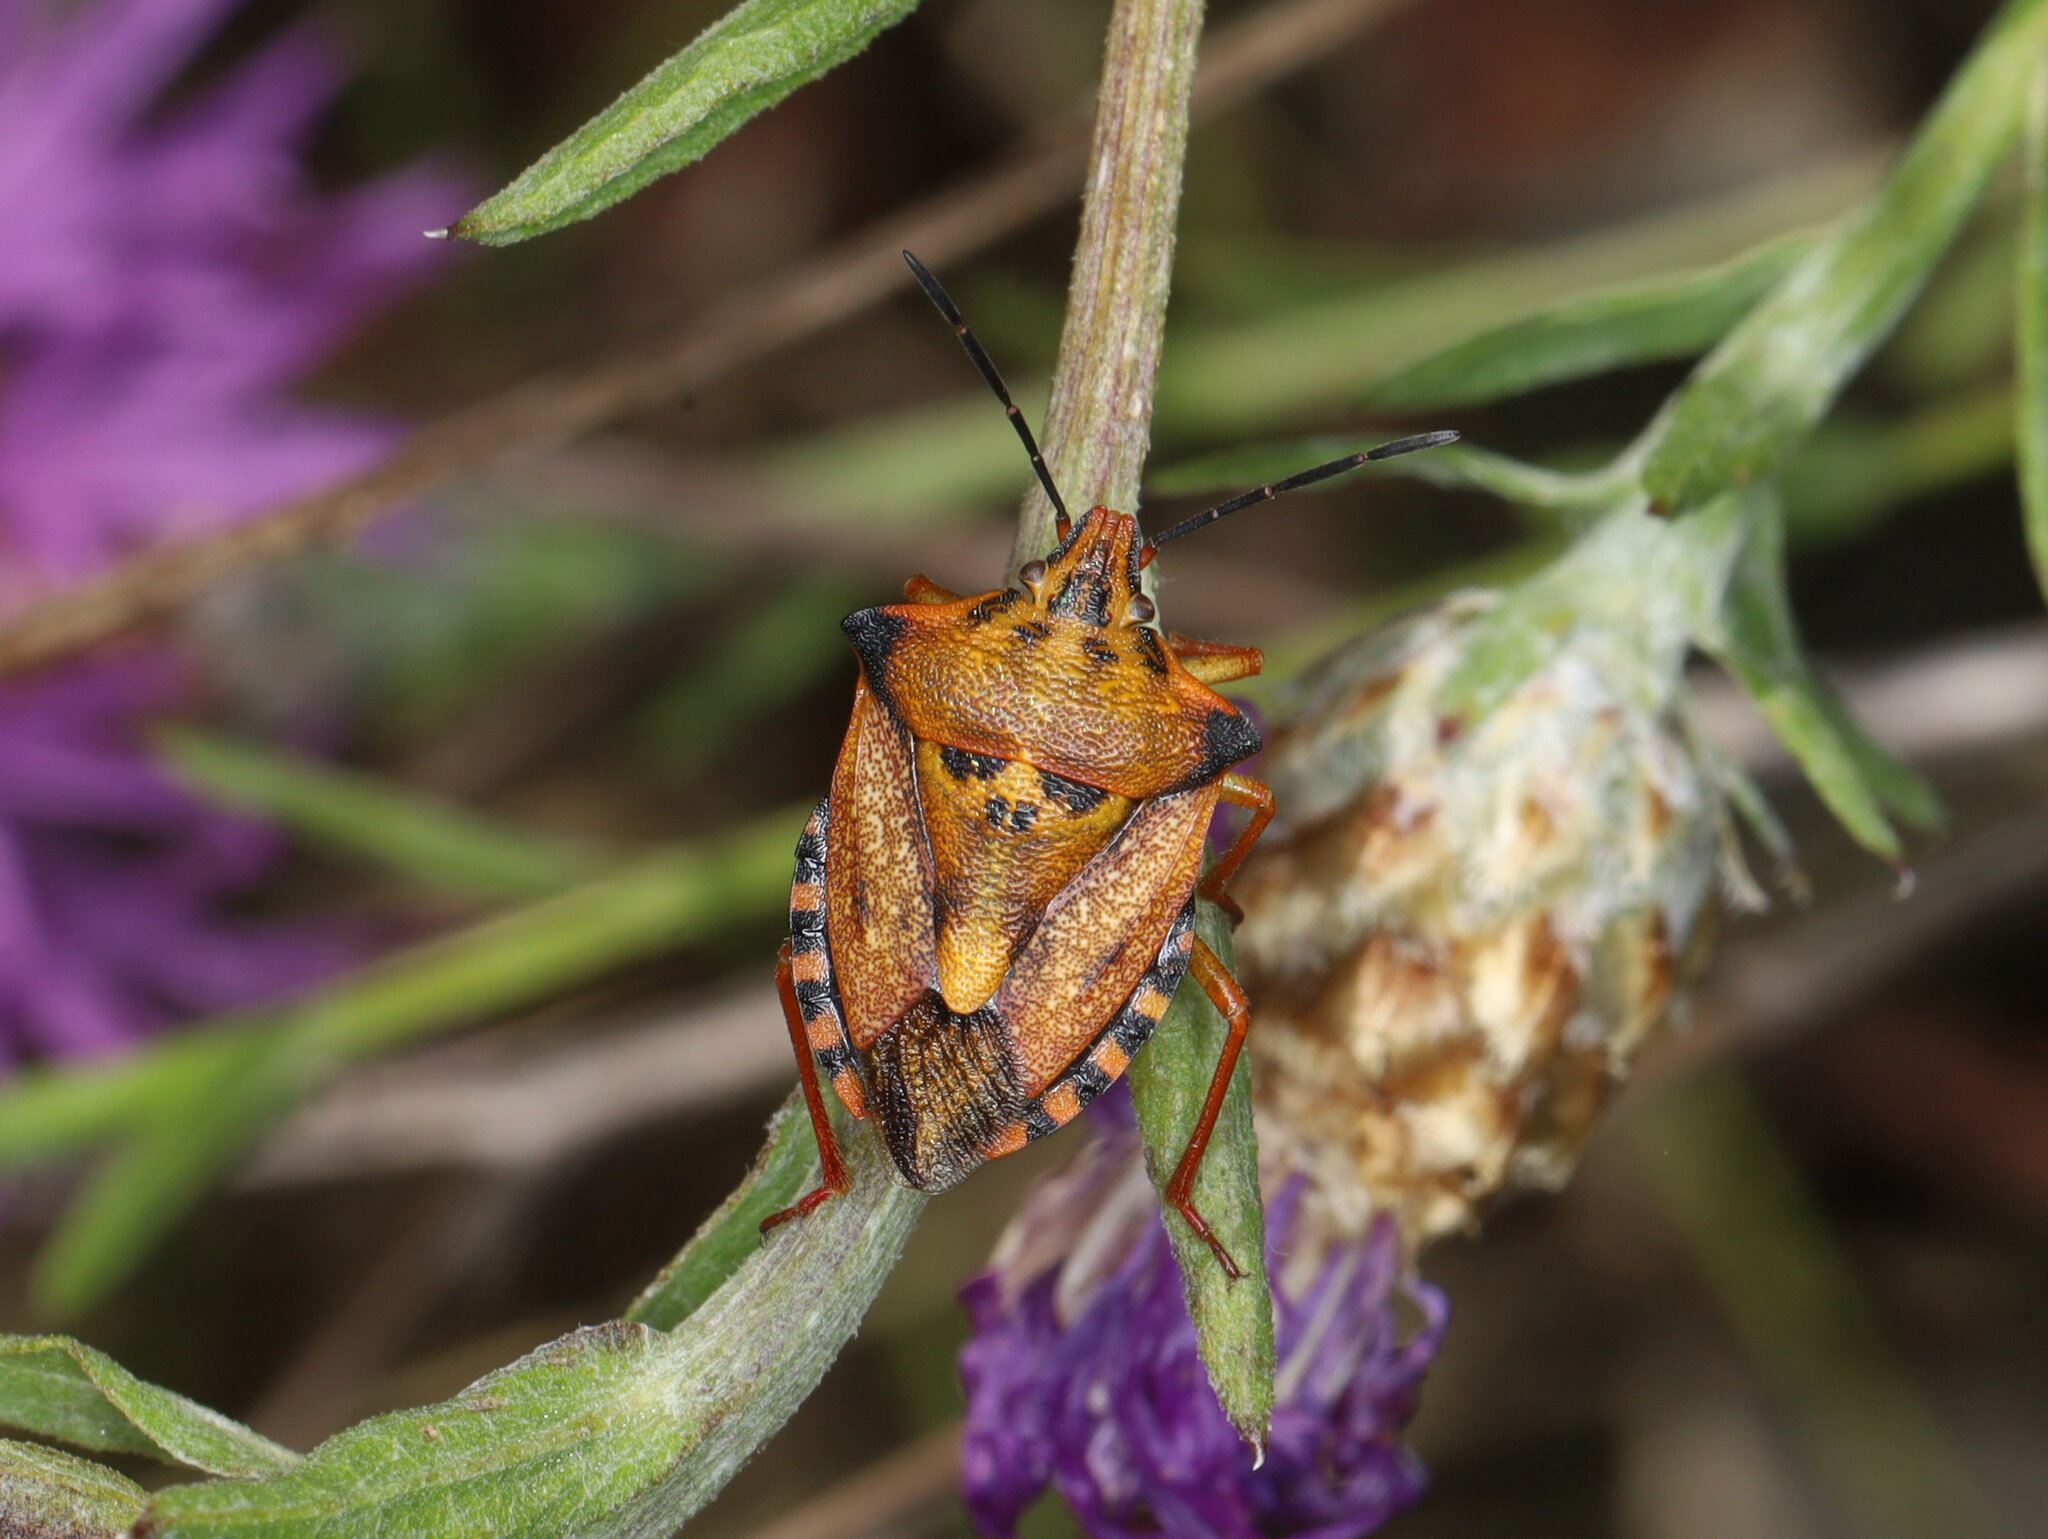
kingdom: Animalia
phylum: Arthropoda
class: Insecta
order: Hemiptera
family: Pentatomidae
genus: Carpocoris
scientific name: Carpocoris mediterraneus
